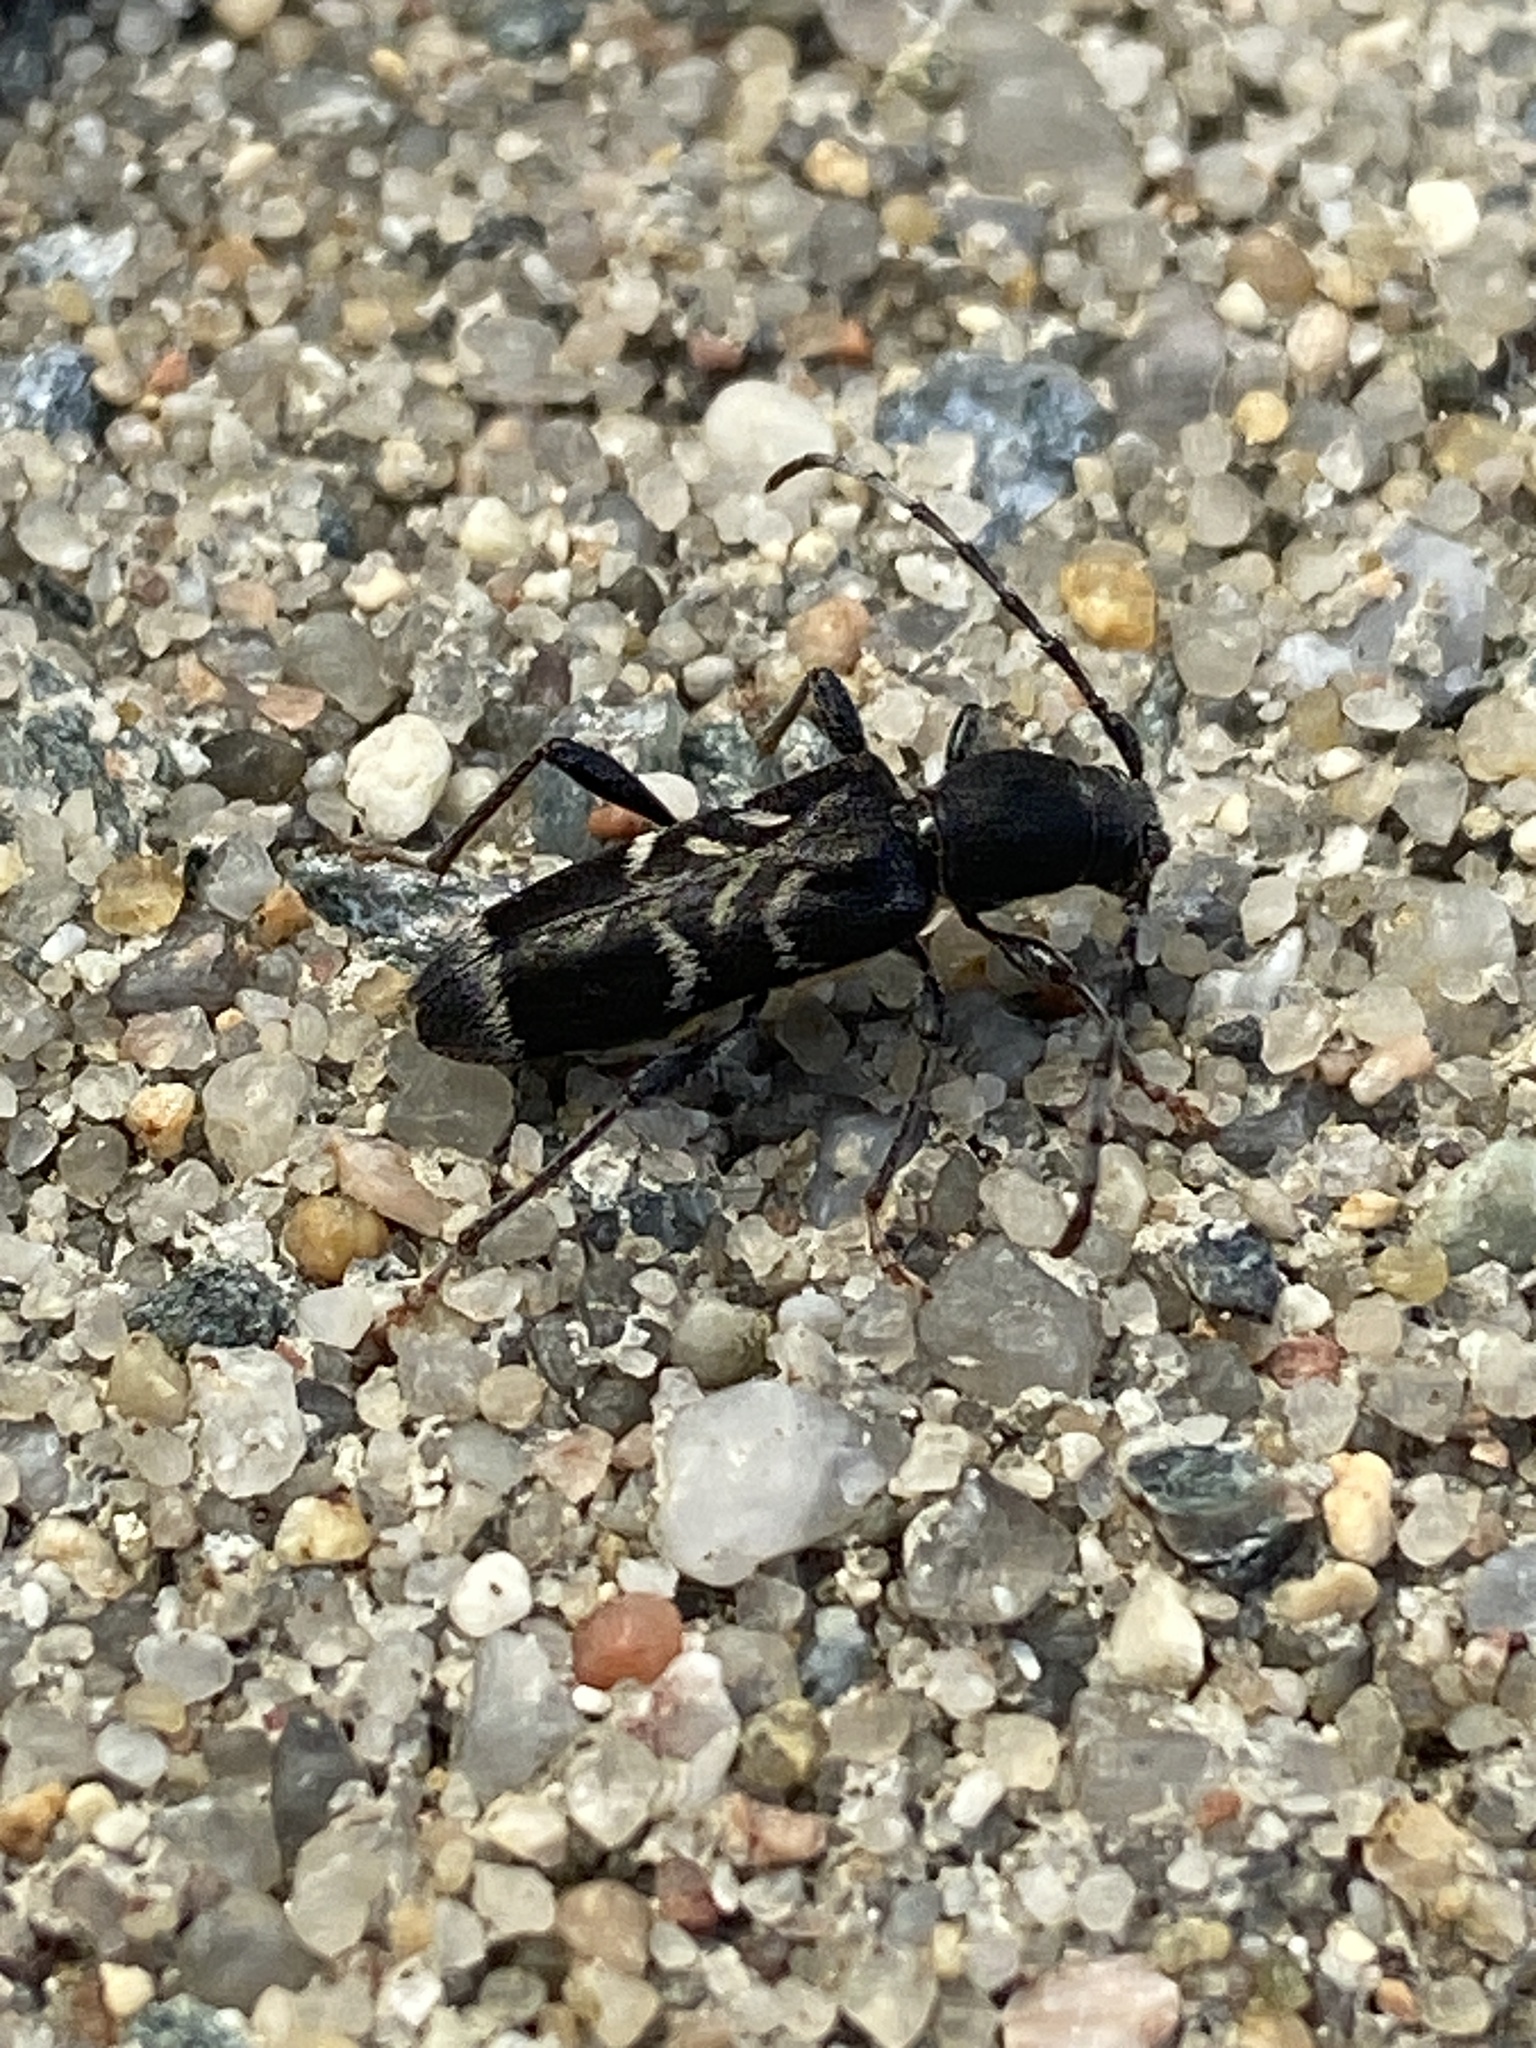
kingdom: Animalia
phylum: Arthropoda
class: Insecta
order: Coleoptera
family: Cerambycidae
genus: Anaglyptus
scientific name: Anaglyptus mysticus
